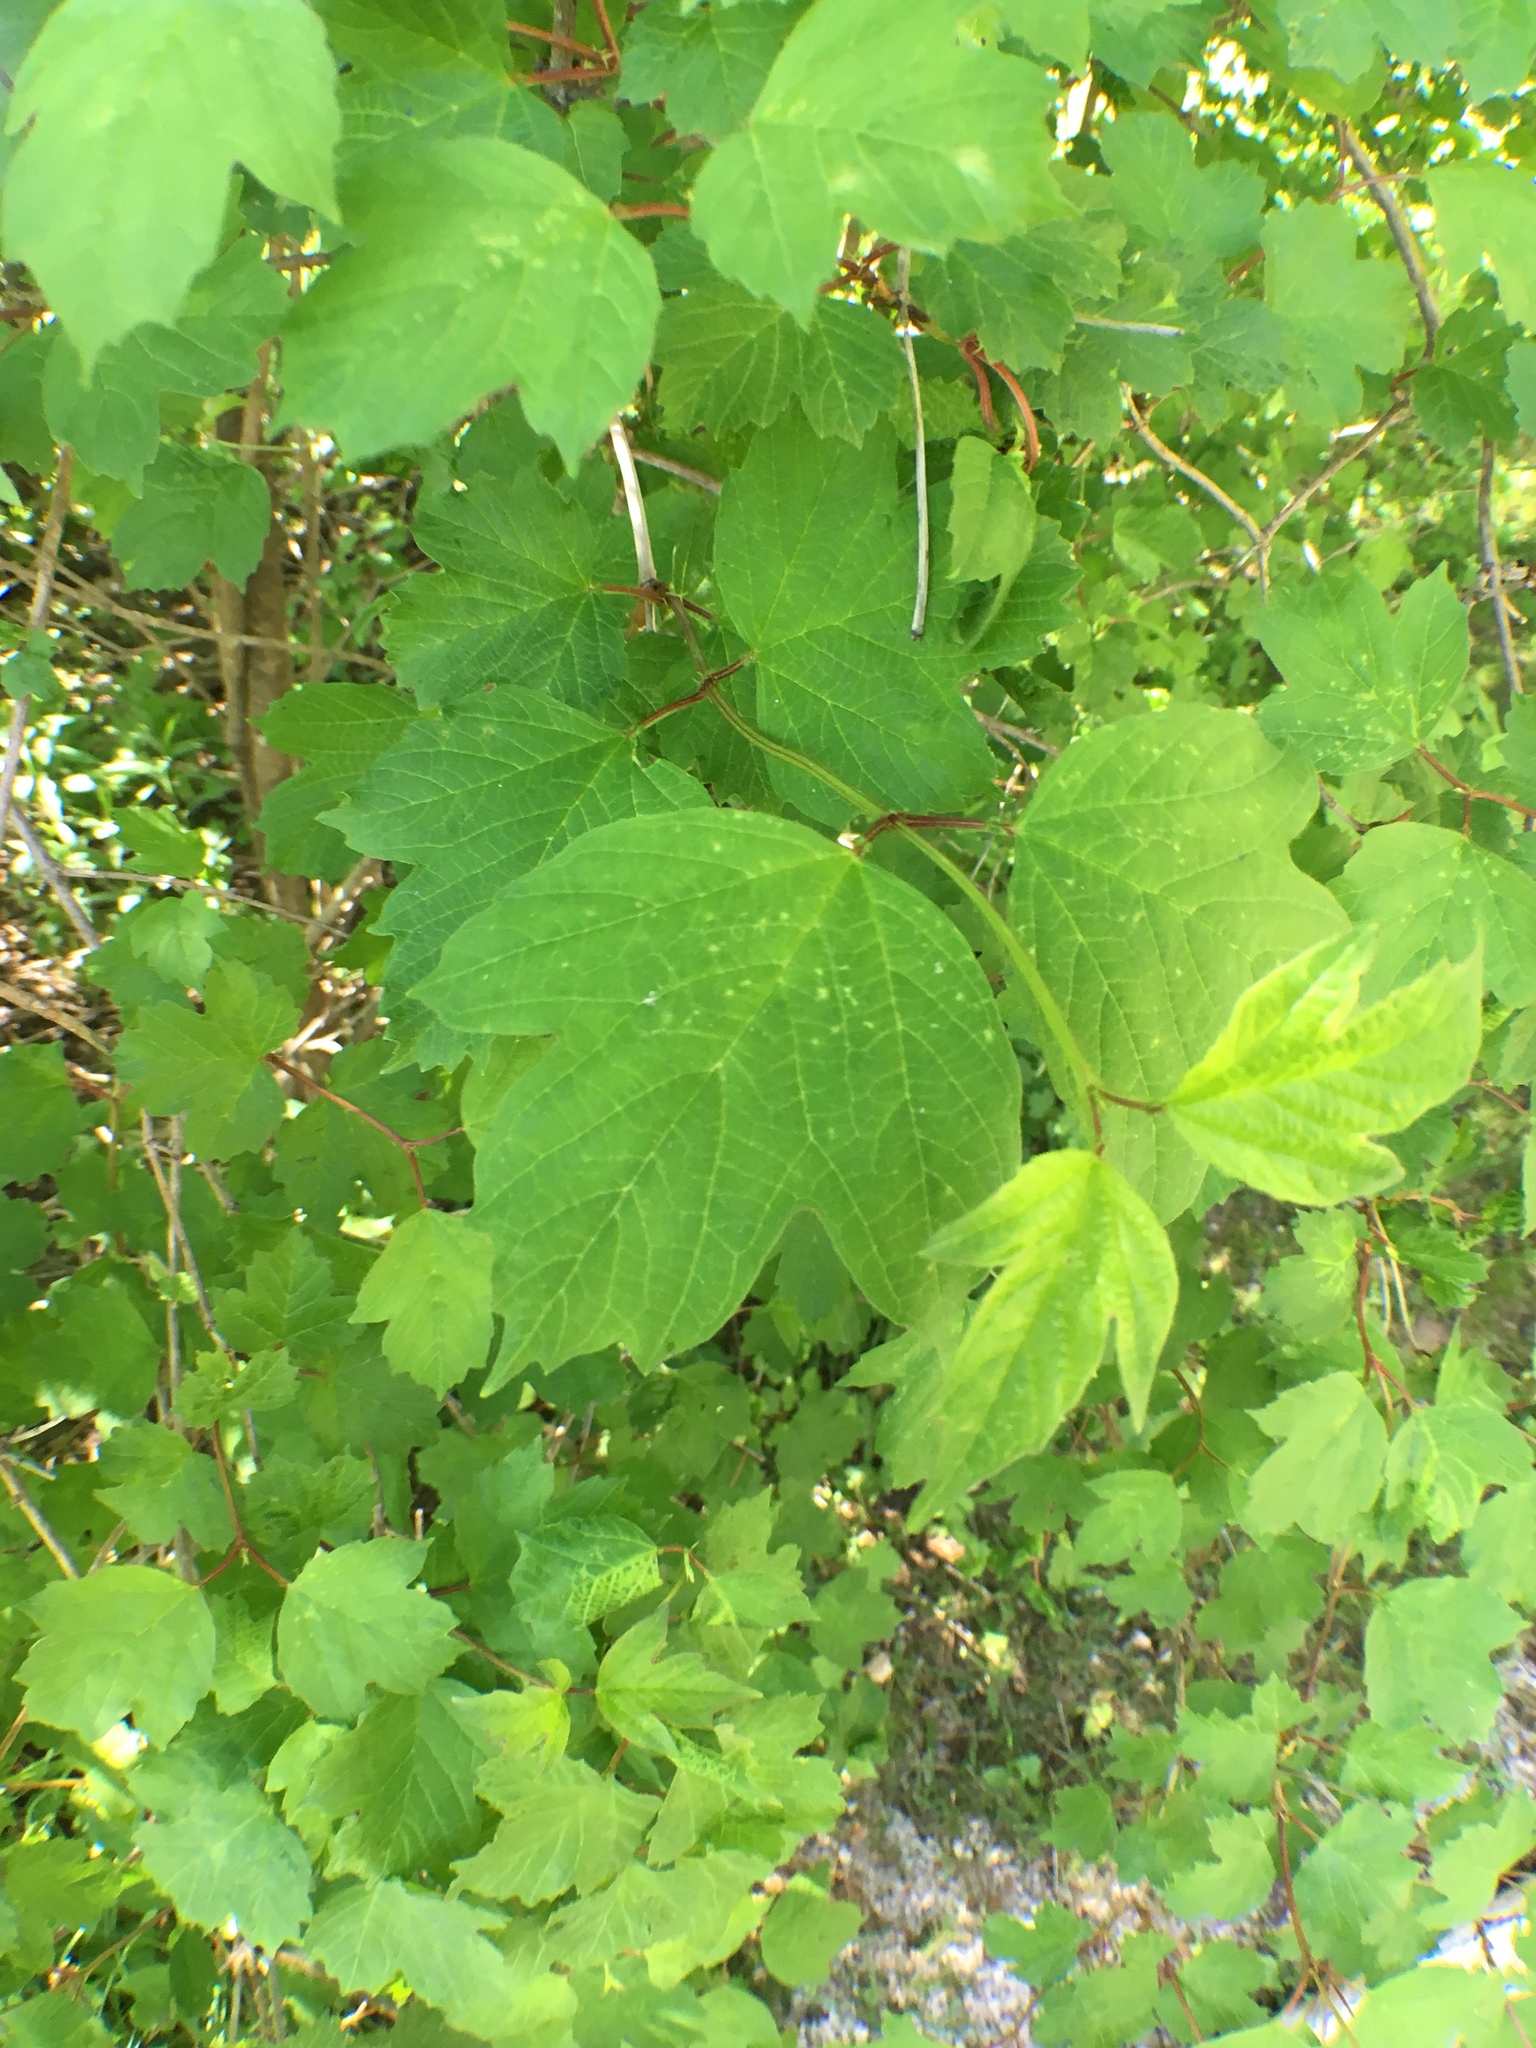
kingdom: Plantae
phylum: Tracheophyta
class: Magnoliopsida
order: Dipsacales
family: Viburnaceae
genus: Viburnum
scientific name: Viburnum opulus
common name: Guelder-rose
